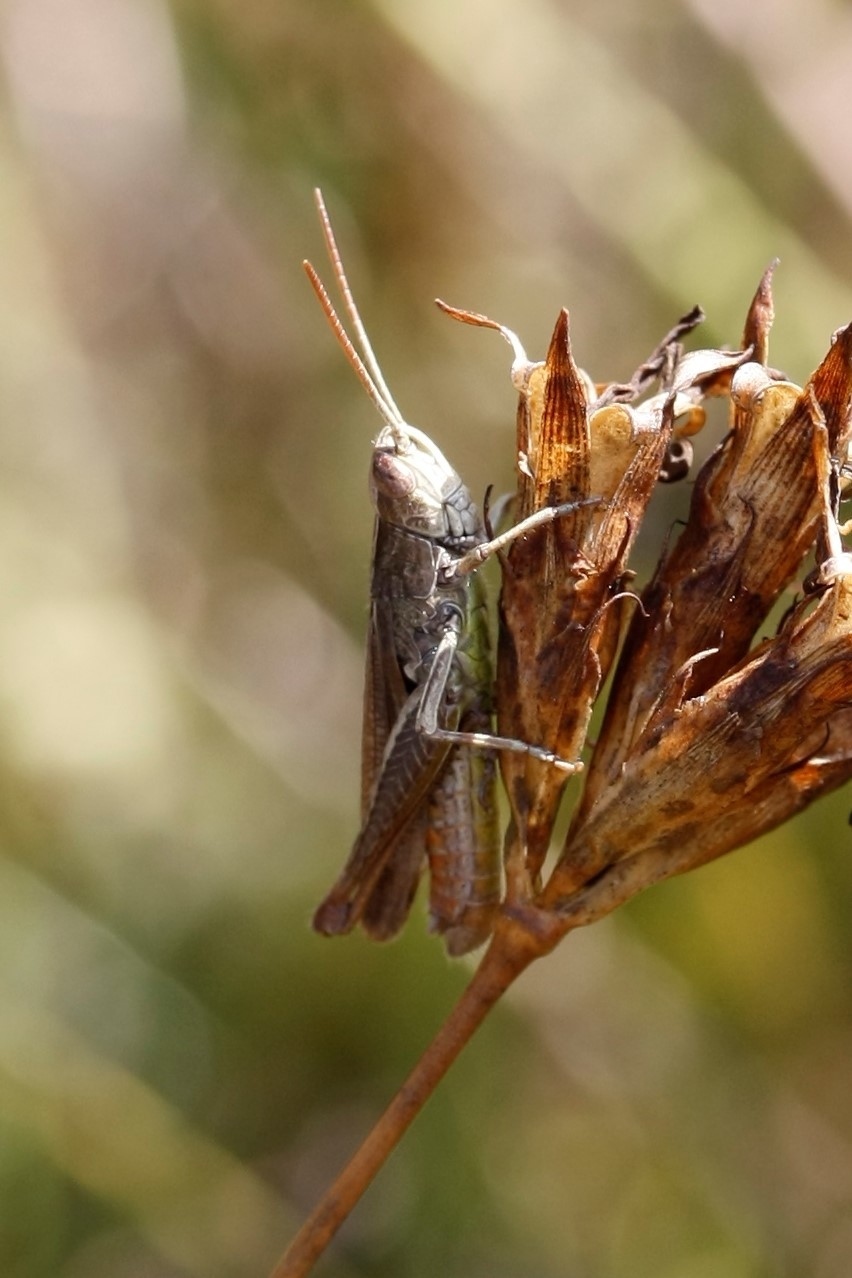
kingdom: Animalia
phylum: Arthropoda
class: Insecta
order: Orthoptera
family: Acrididae
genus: Chorthippus
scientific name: Chorthippus dorsatus
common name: Steppe grasshopper
